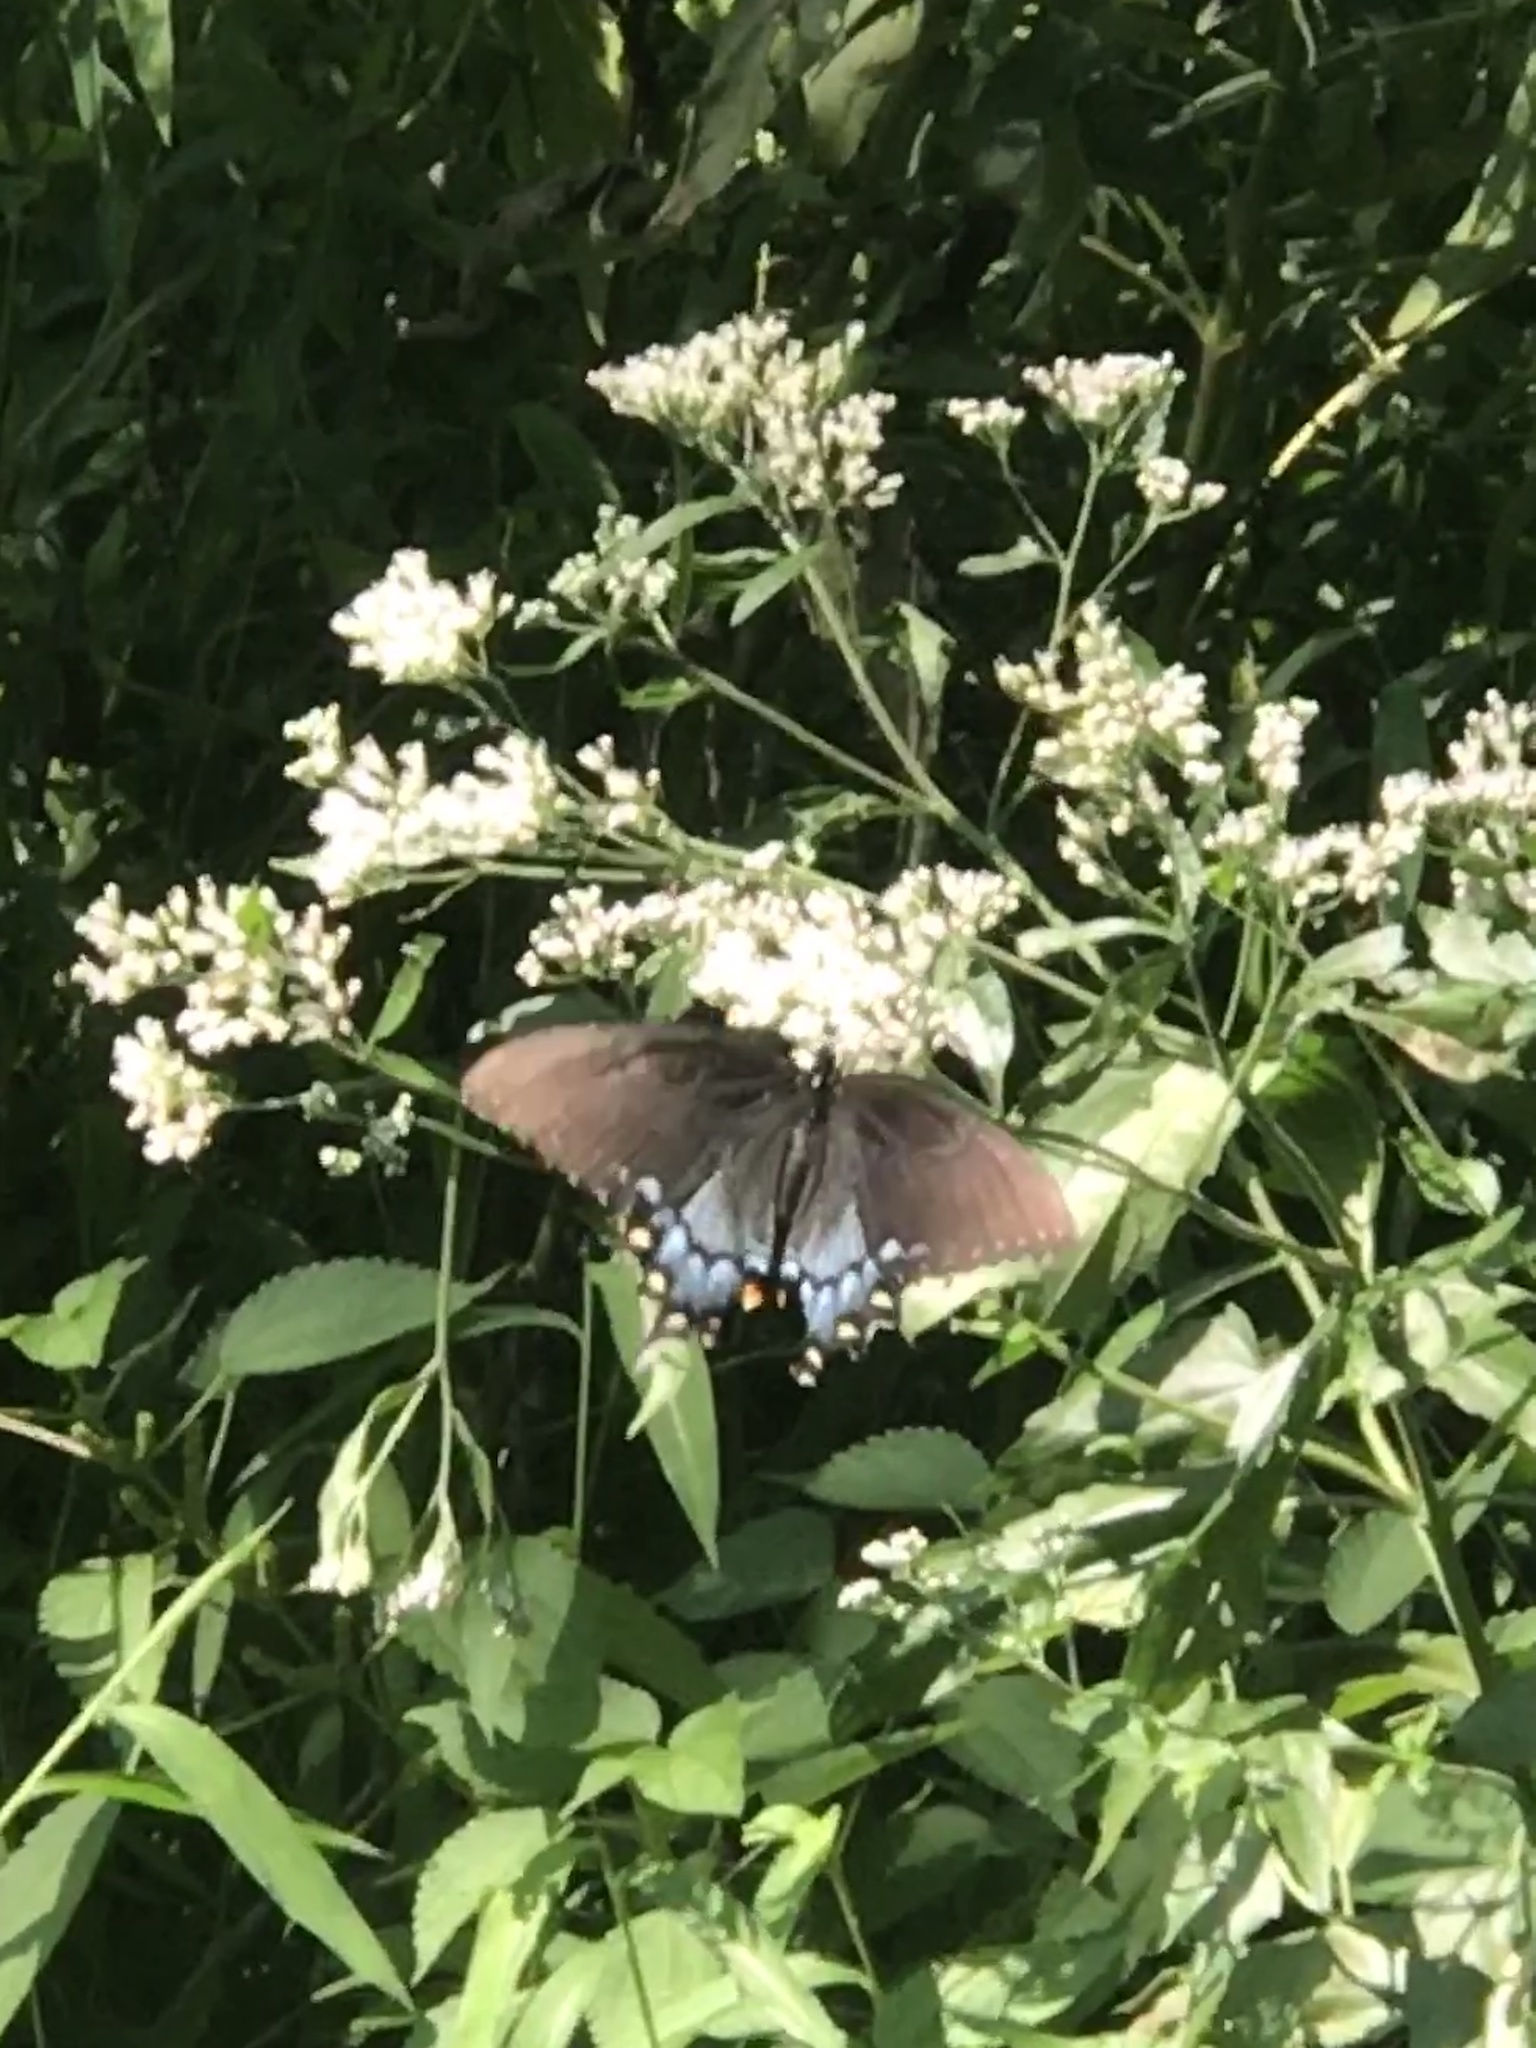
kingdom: Animalia
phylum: Arthropoda
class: Insecta
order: Lepidoptera
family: Papilionidae
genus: Papilio
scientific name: Papilio glaucus
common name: Tiger swallowtail
